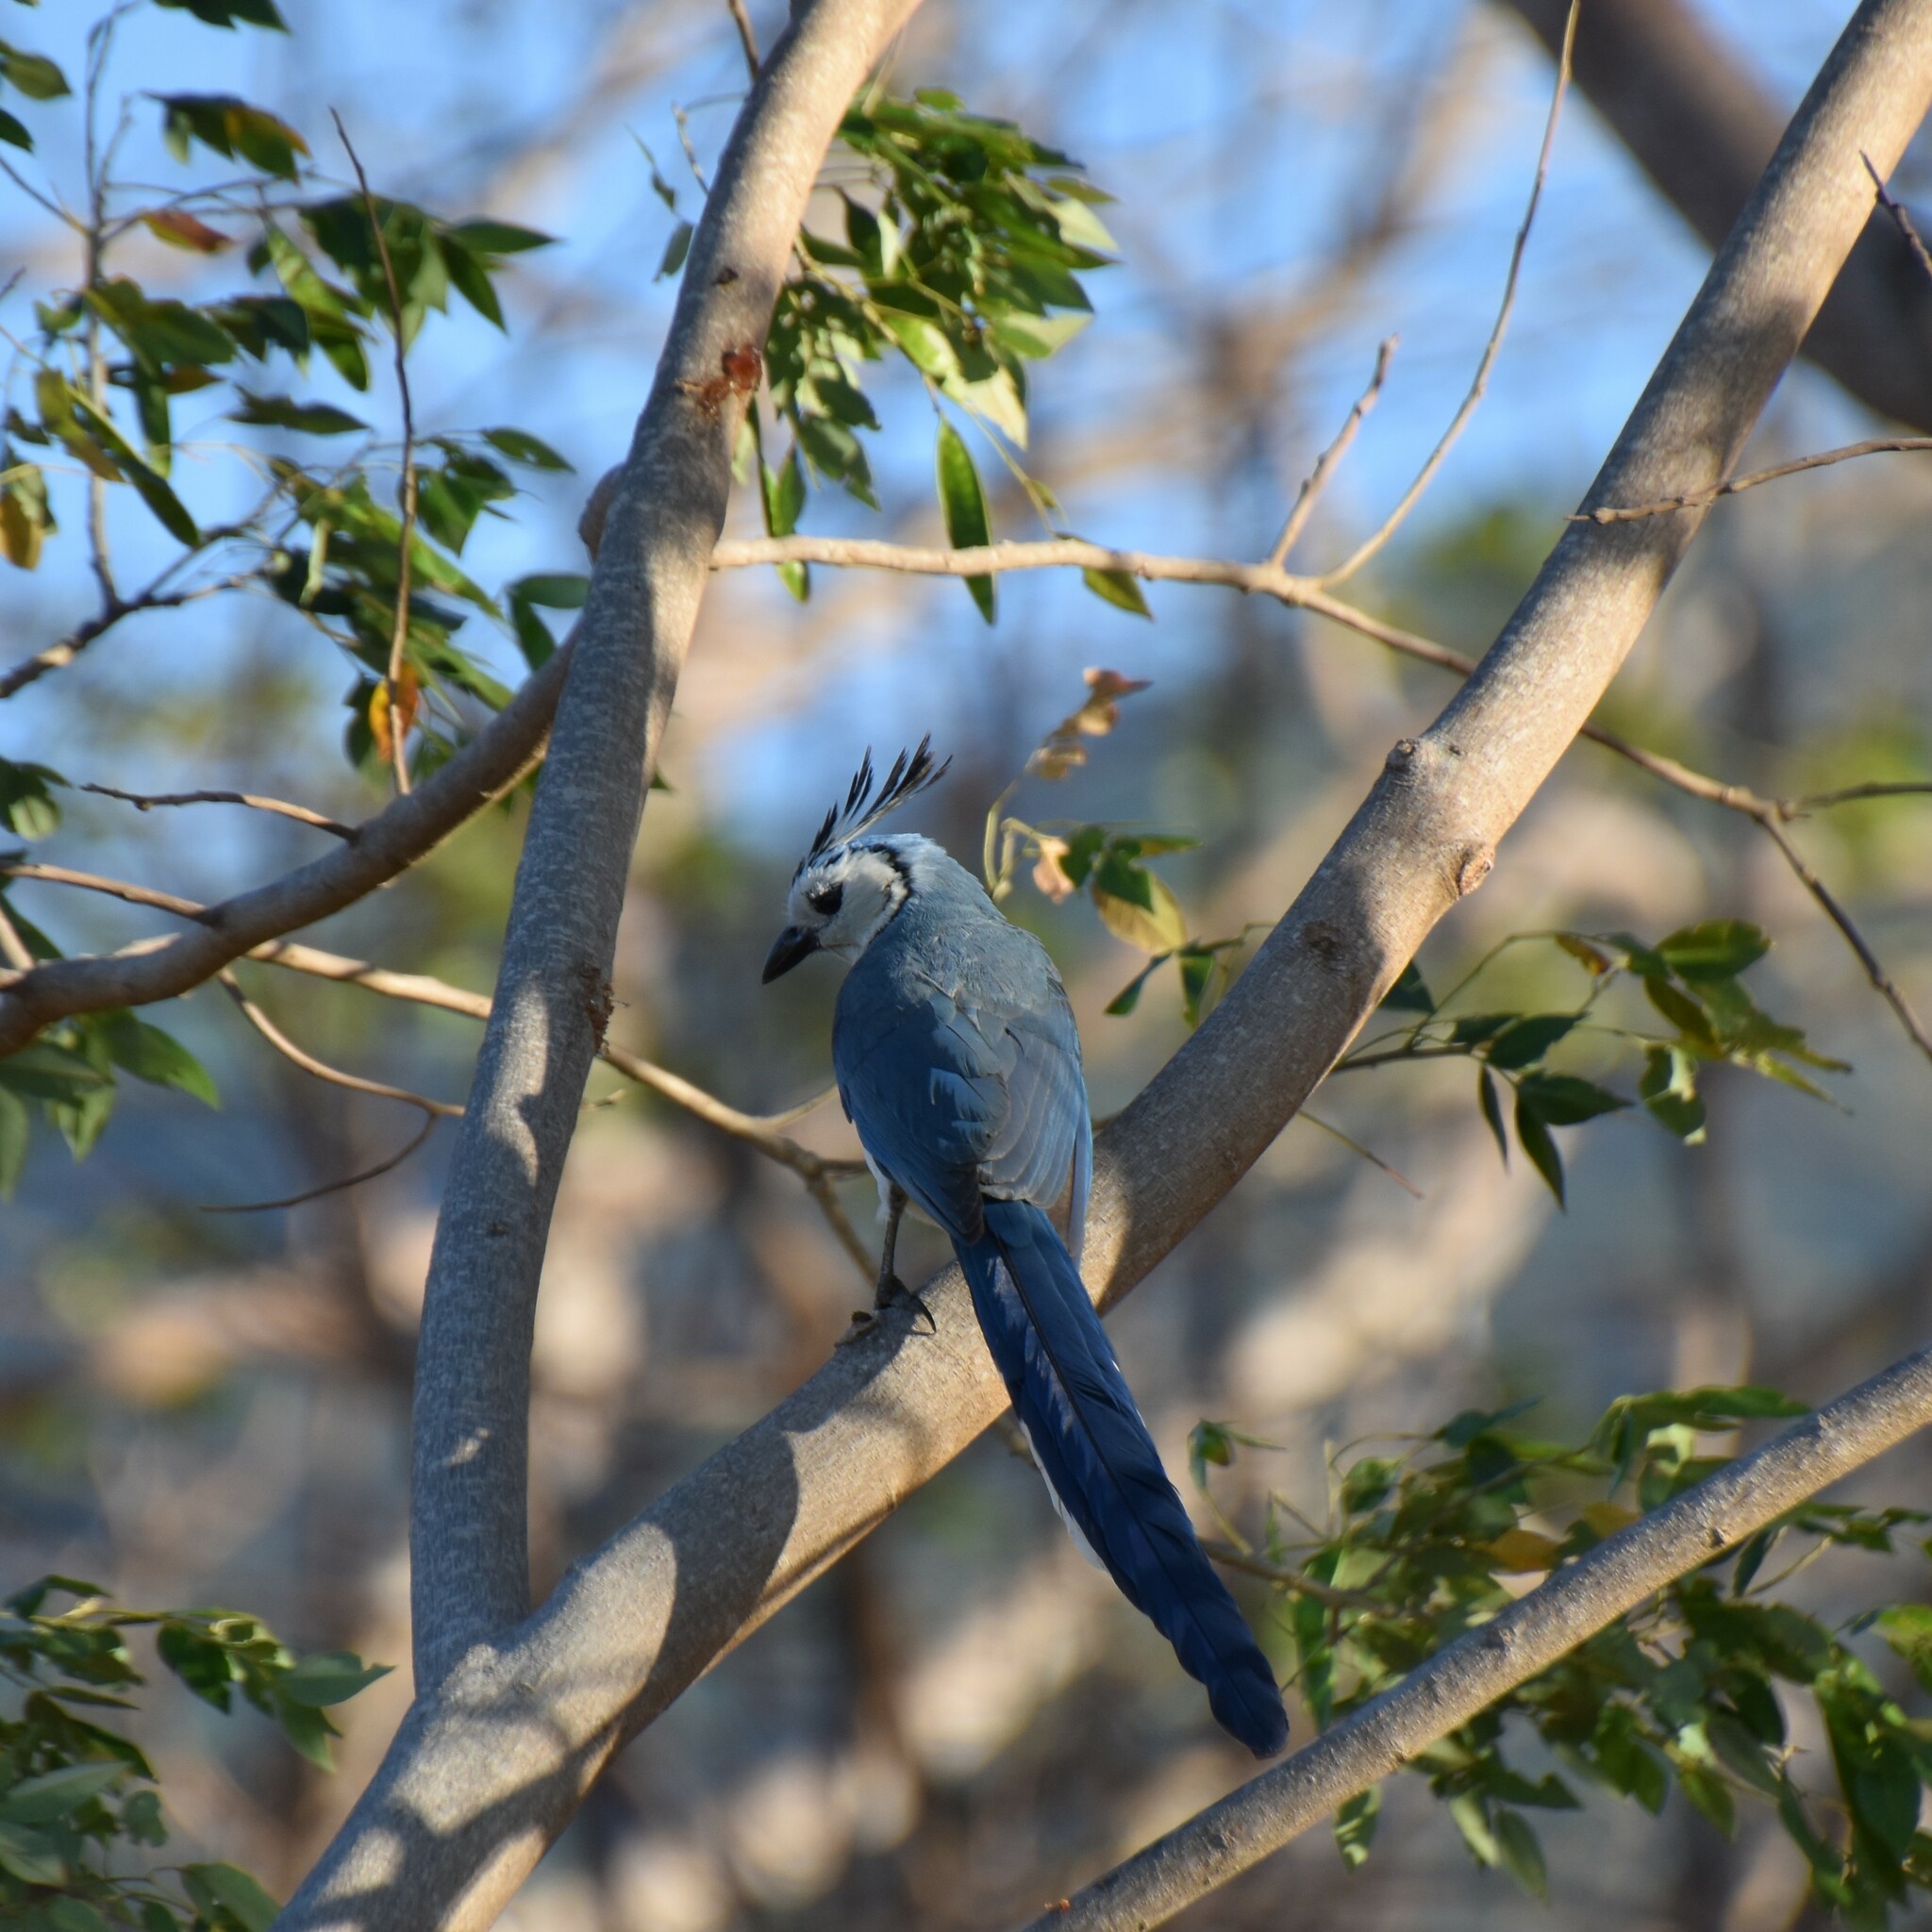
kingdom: Animalia
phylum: Chordata
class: Aves
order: Passeriformes
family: Corvidae
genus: Calocitta
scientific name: Calocitta formosa
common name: White-throated magpie-jay
